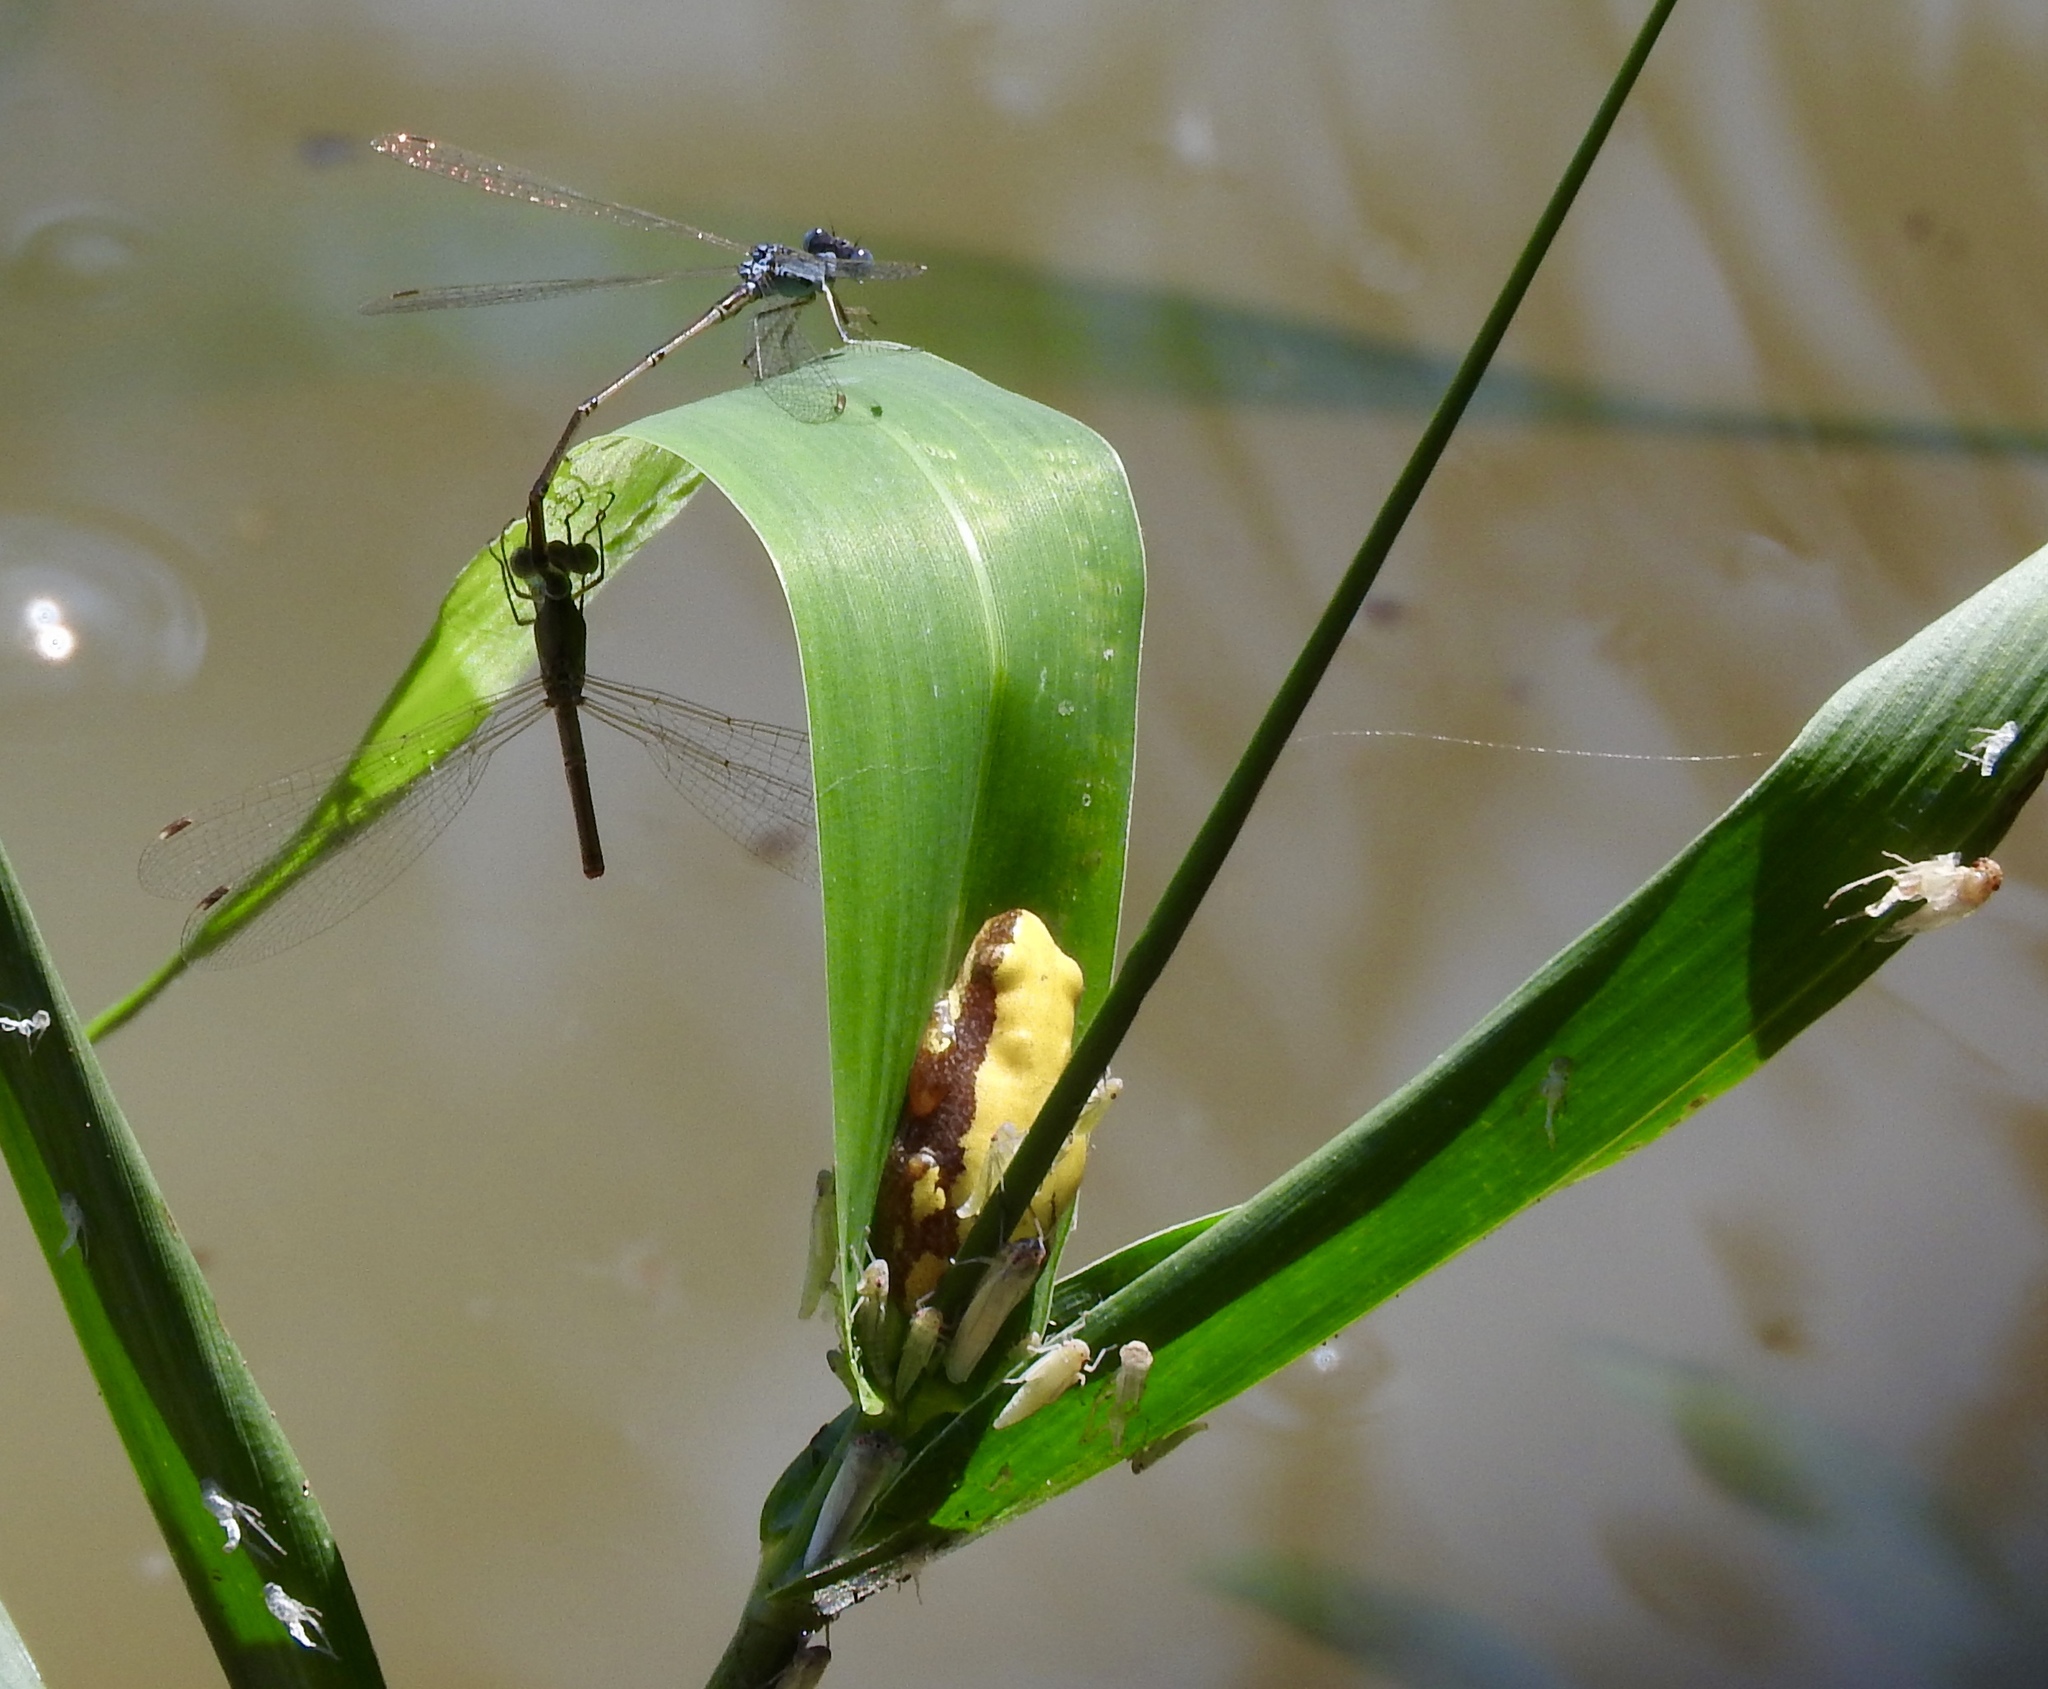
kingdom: Animalia
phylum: Chordata
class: Amphibia
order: Anura
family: Hyperoliidae
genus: Afrixalus
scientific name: Afrixalus aureus
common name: Golden banana frog
